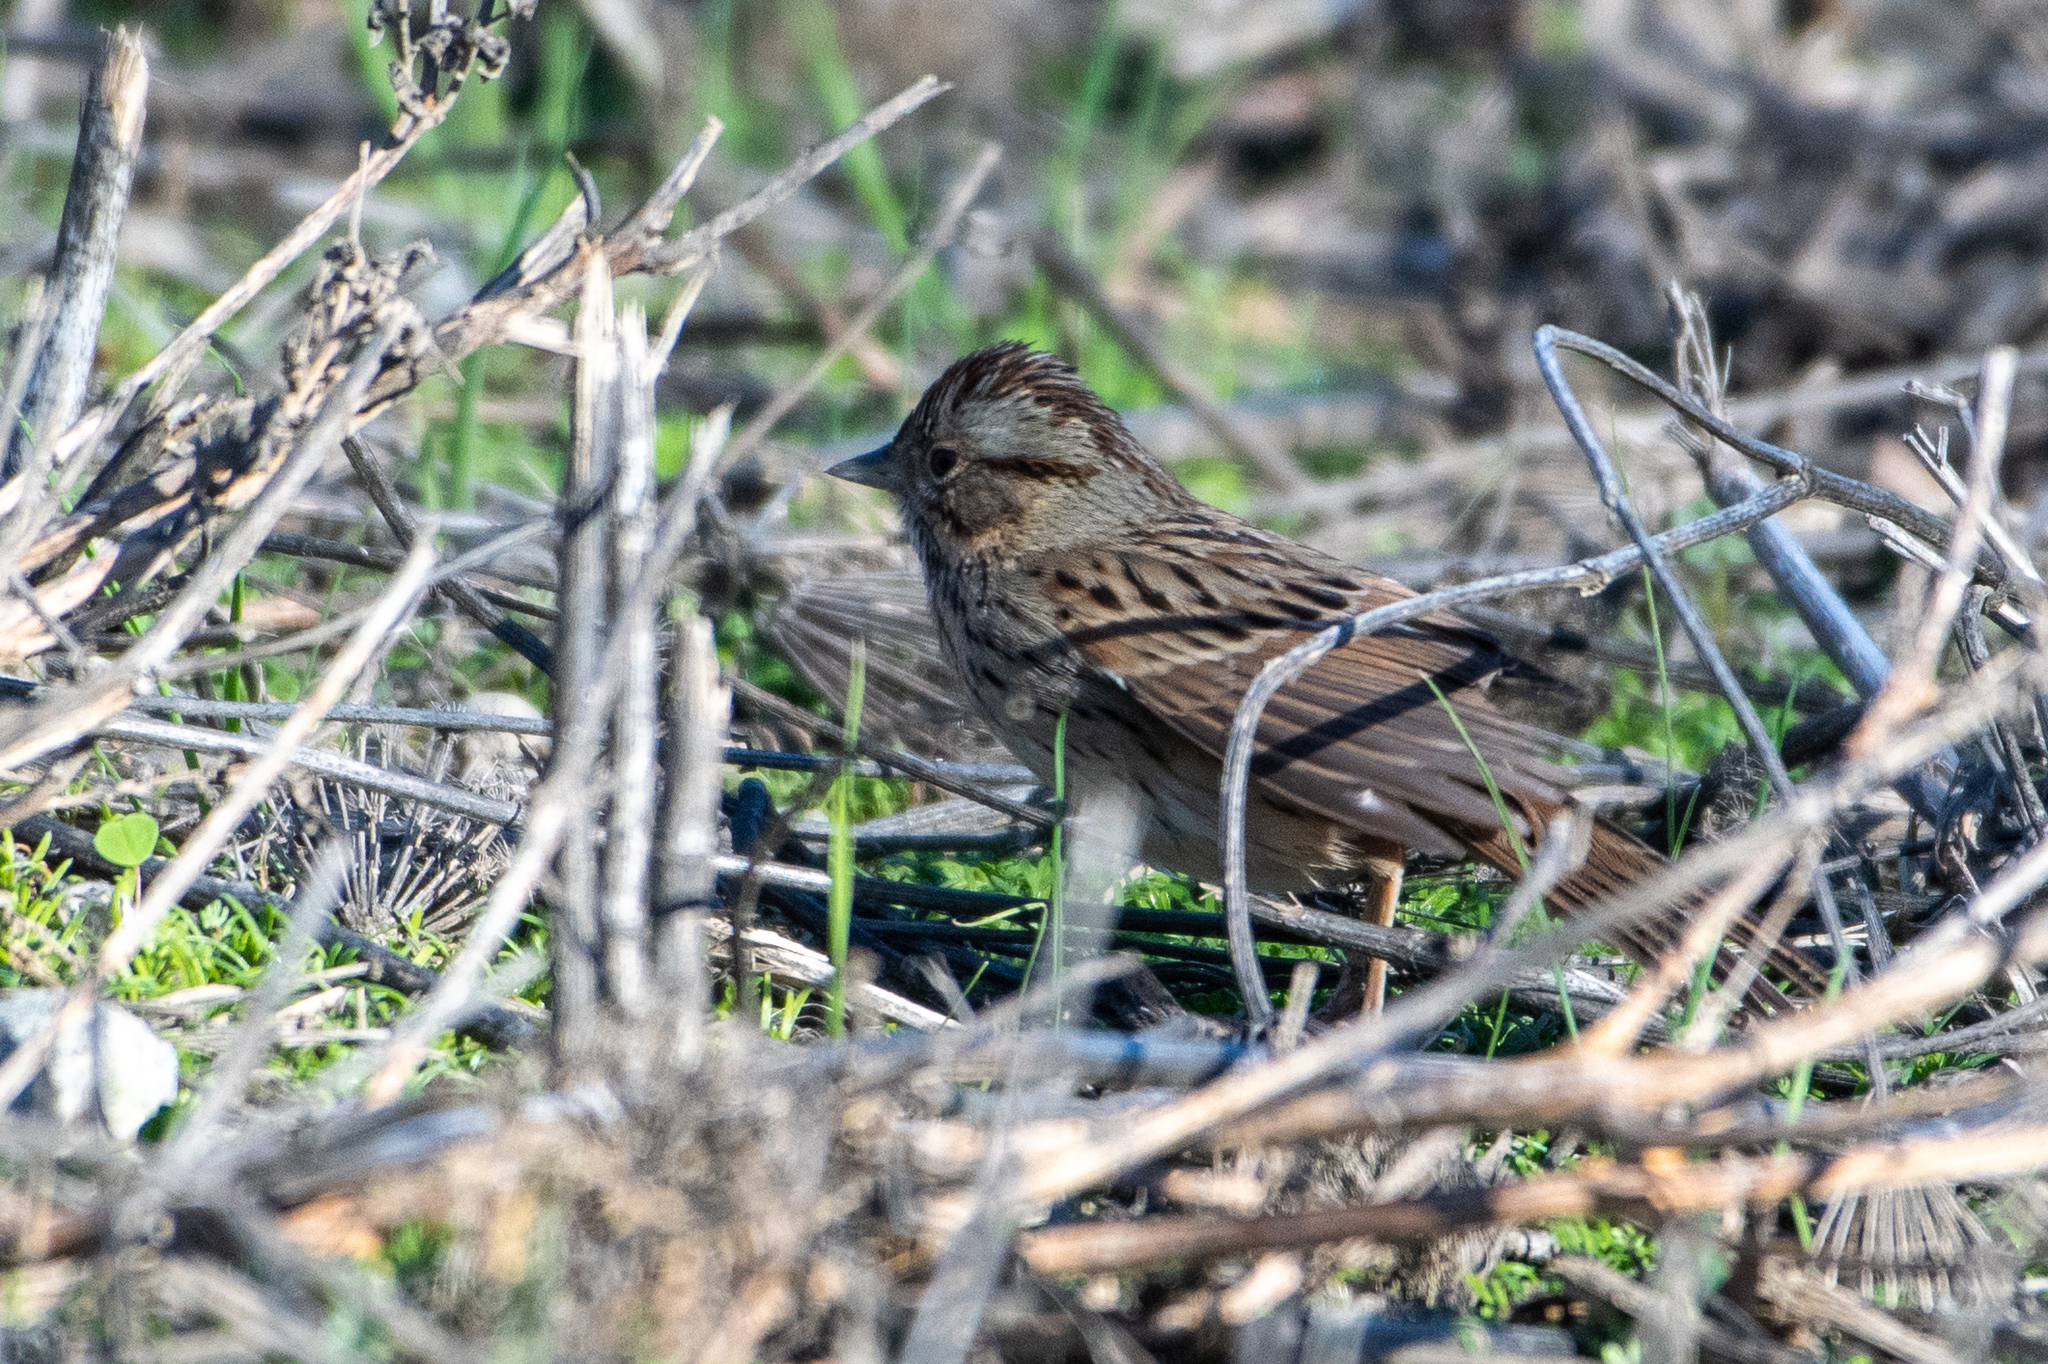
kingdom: Animalia
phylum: Chordata
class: Aves
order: Passeriformes
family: Passerellidae
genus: Melospiza
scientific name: Melospiza lincolnii
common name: Lincoln's sparrow
